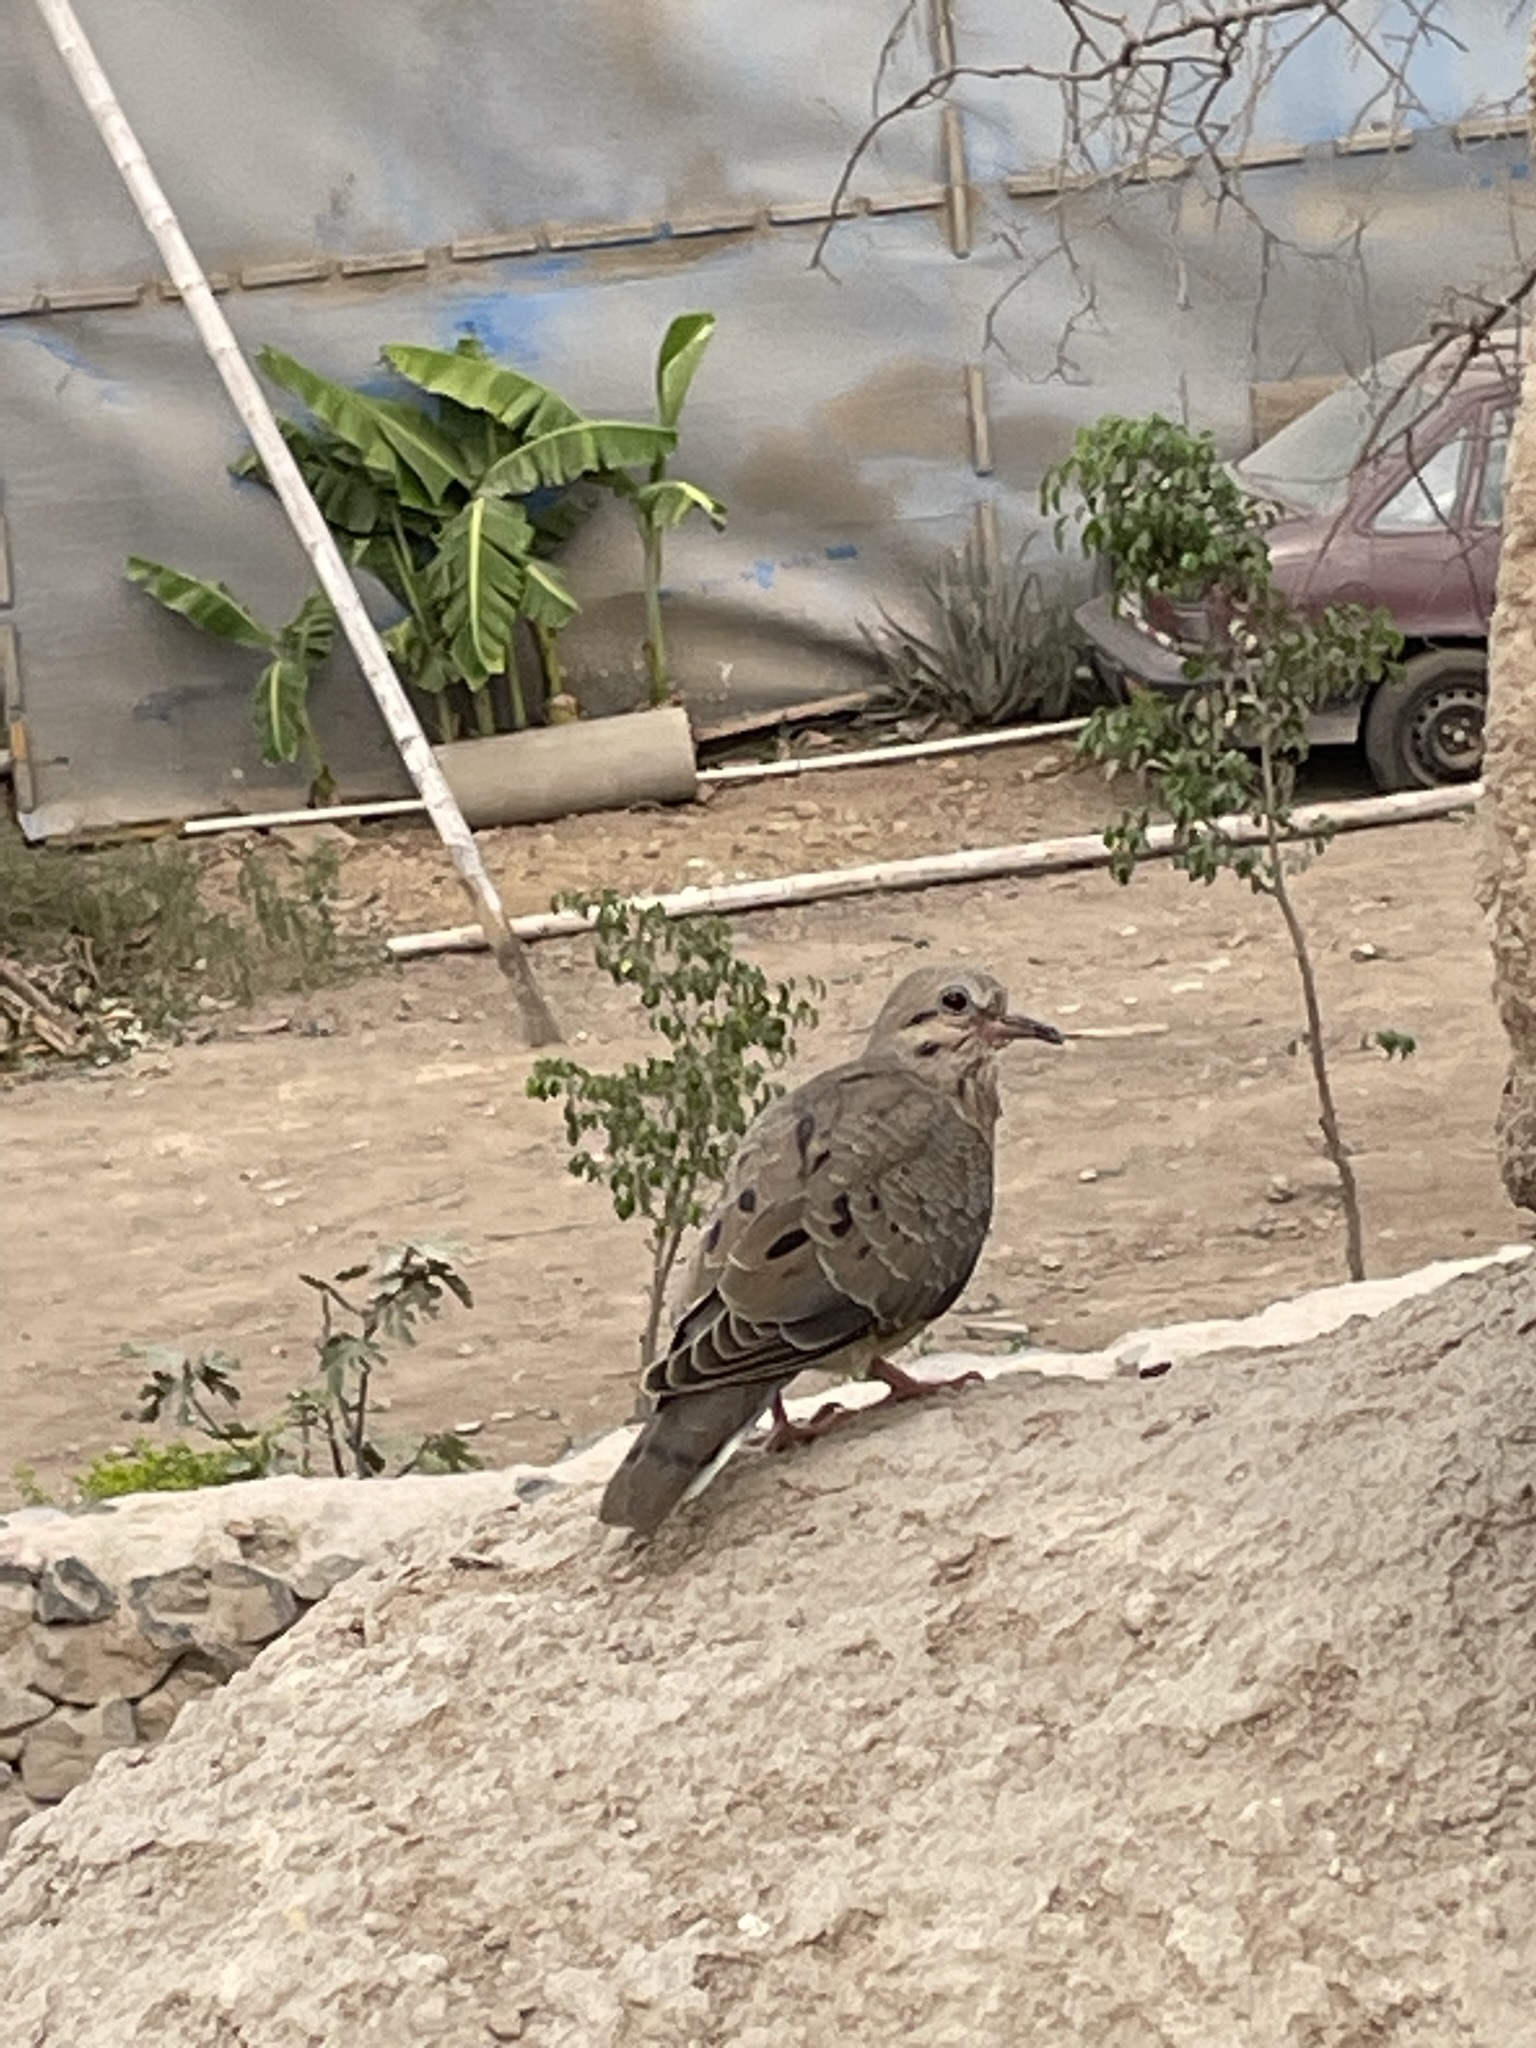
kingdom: Animalia
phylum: Chordata
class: Aves
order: Columbiformes
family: Columbidae
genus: Zenaida
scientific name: Zenaida auriculata
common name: Eared dove
